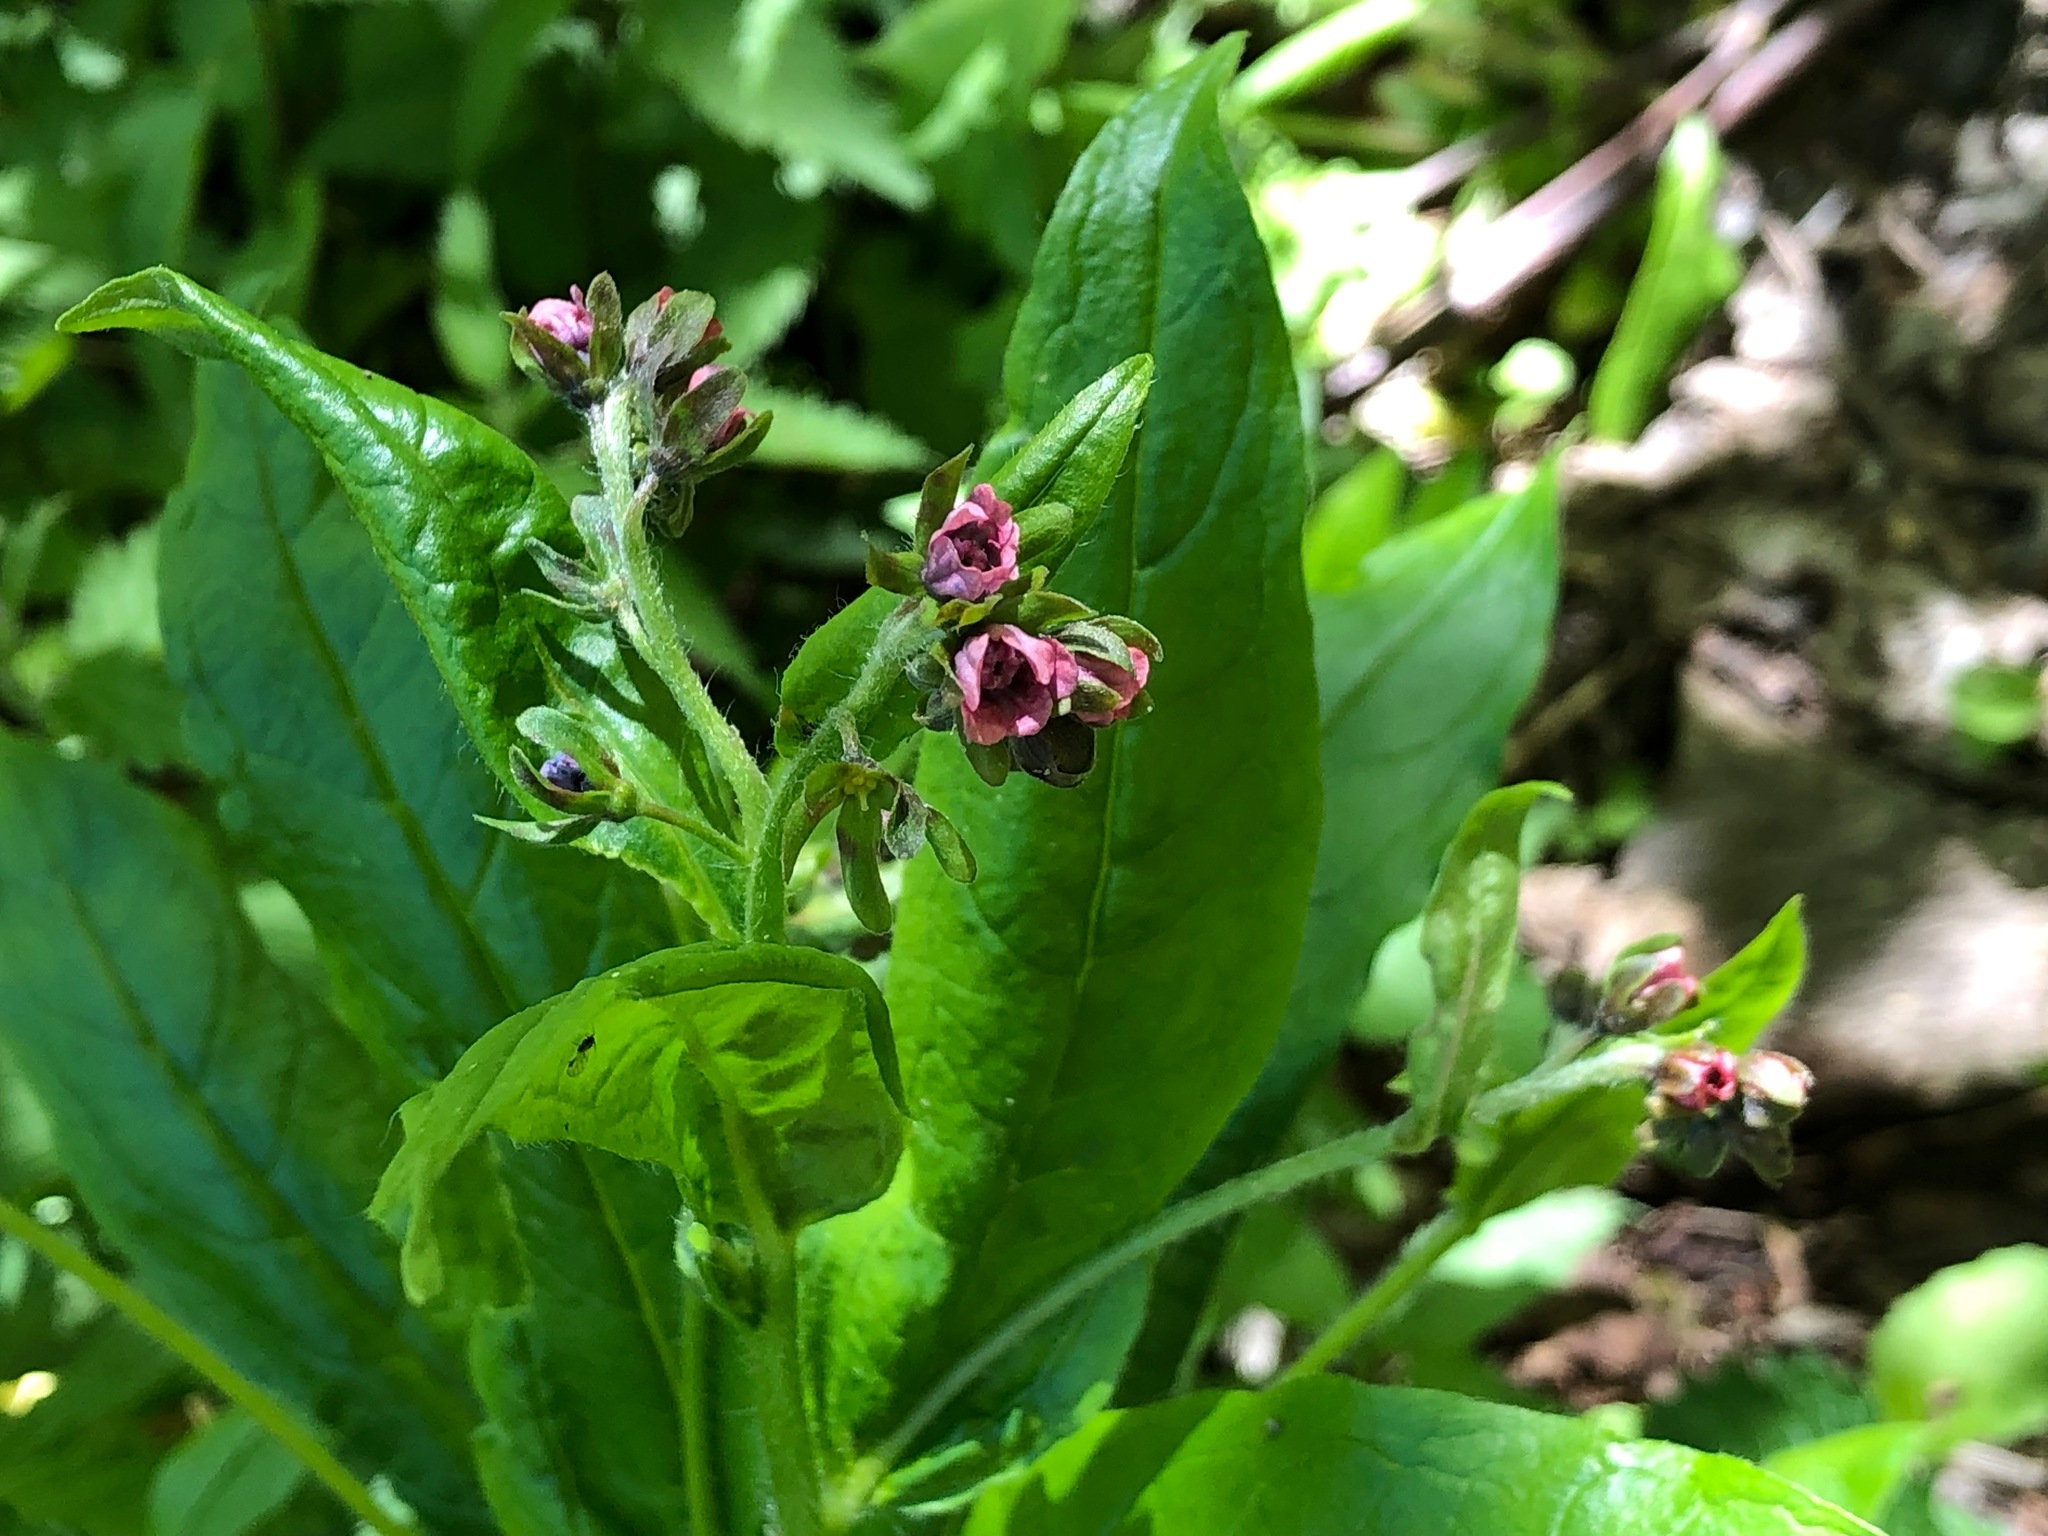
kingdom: Plantae
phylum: Tracheophyta
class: Magnoliopsida
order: Boraginales
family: Boraginaceae
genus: Cynoglossum
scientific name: Cynoglossum germanicum
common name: Green hound's-tongue
